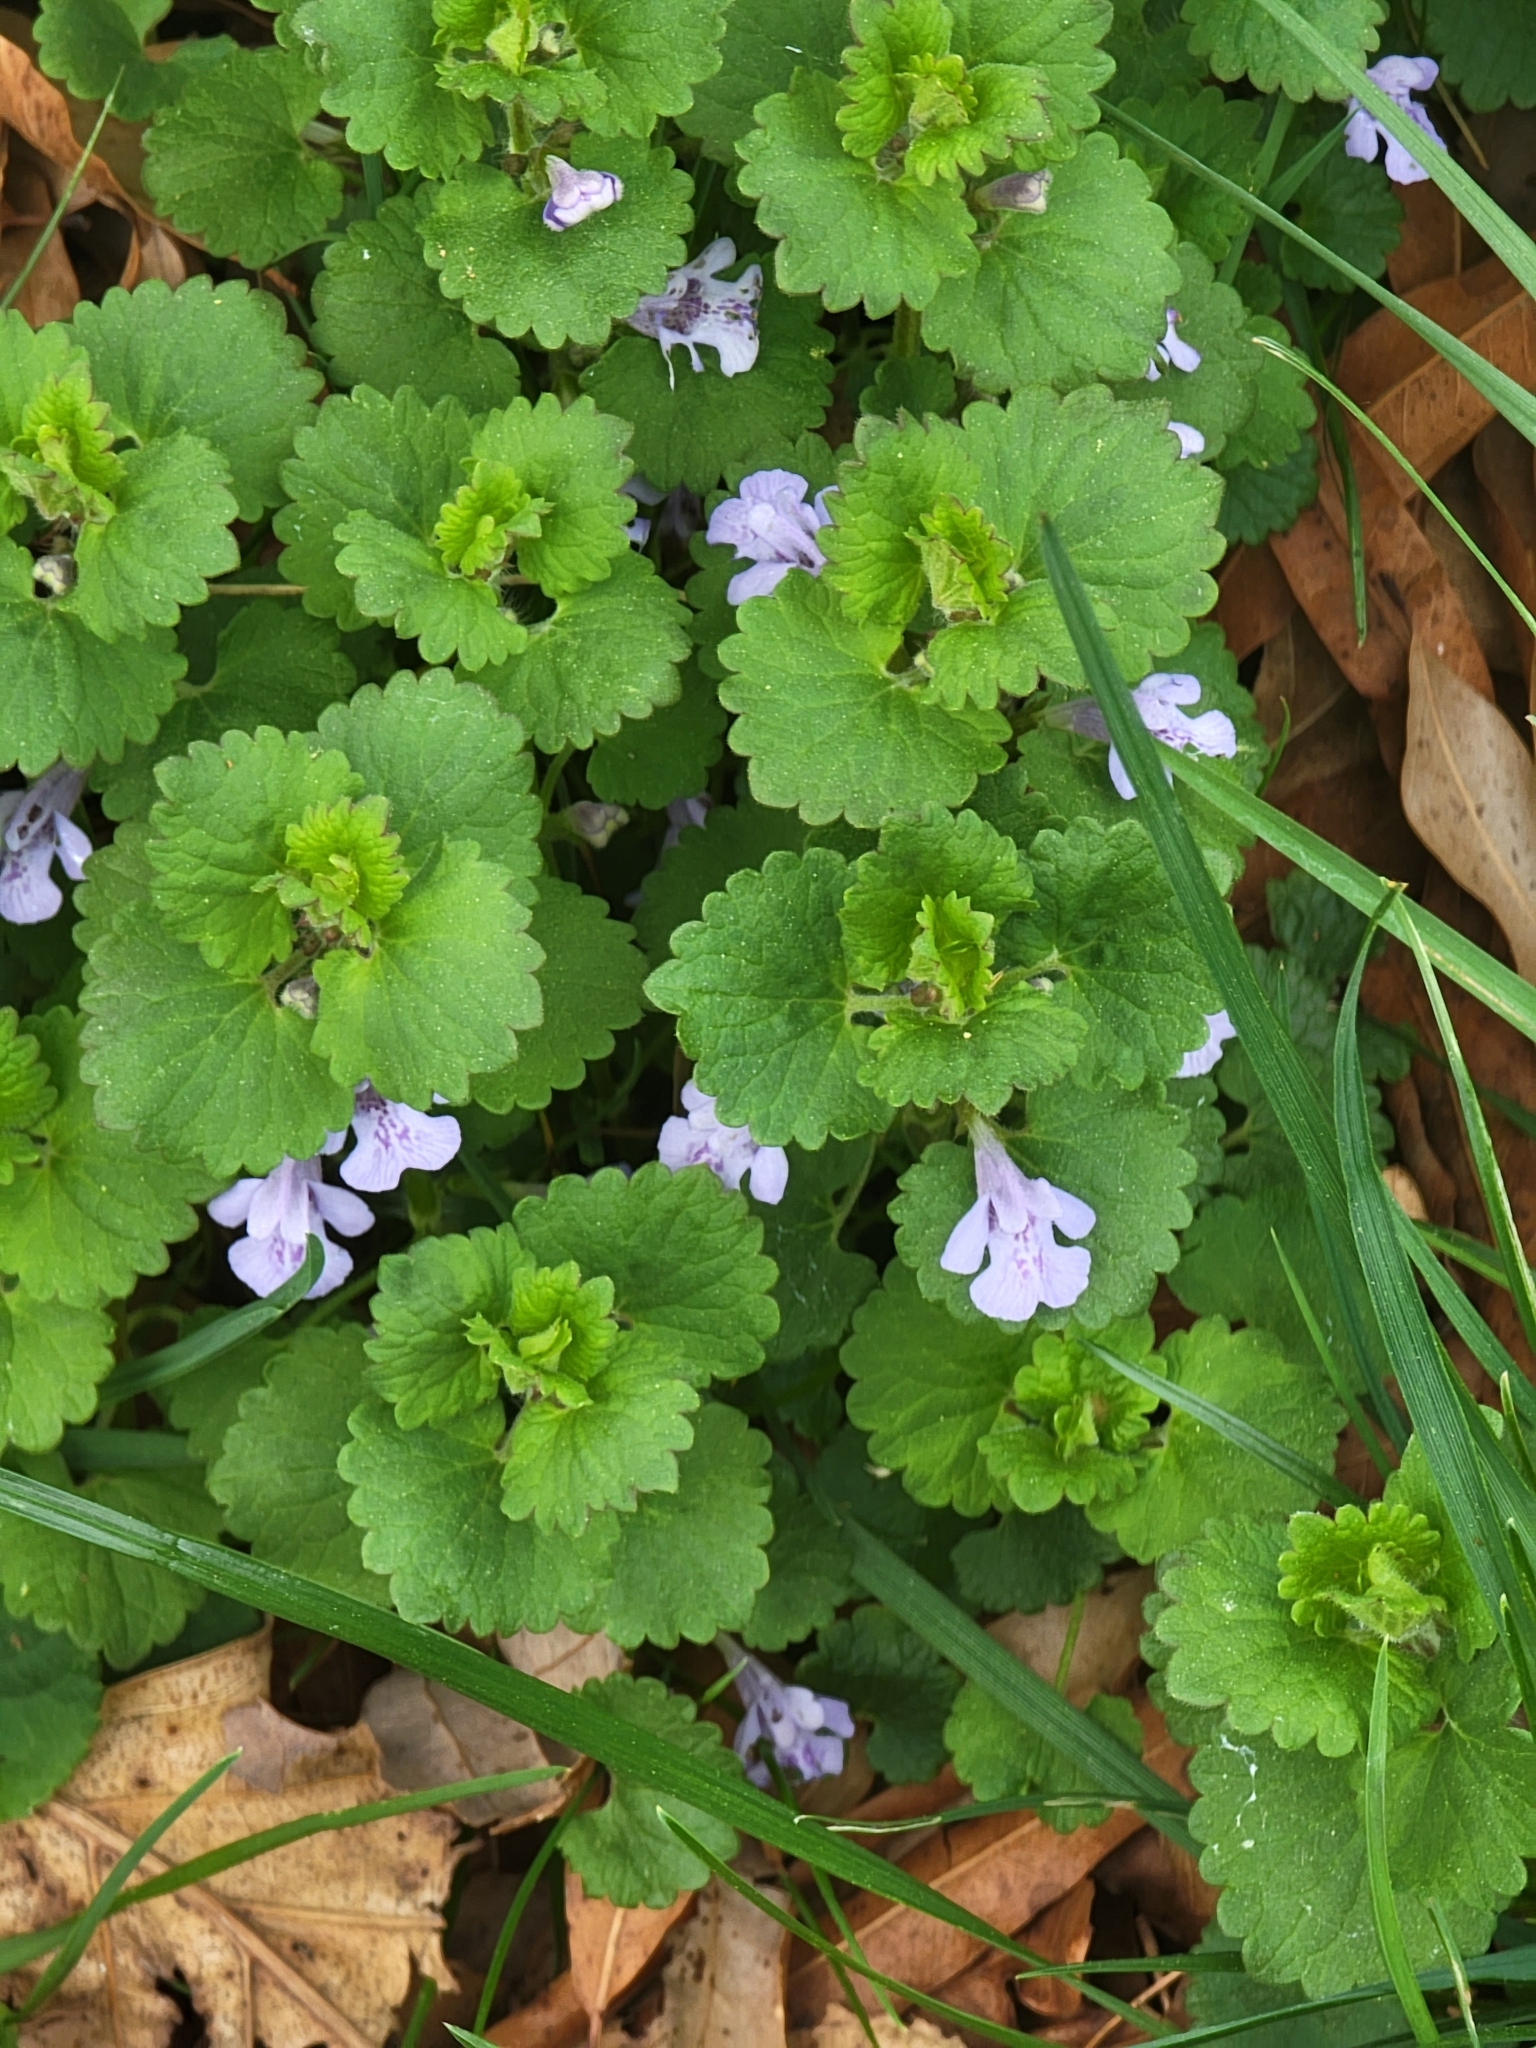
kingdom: Plantae
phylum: Tracheophyta
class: Magnoliopsida
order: Lamiales
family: Lamiaceae
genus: Glechoma
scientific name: Glechoma hederacea
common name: Ground ivy
